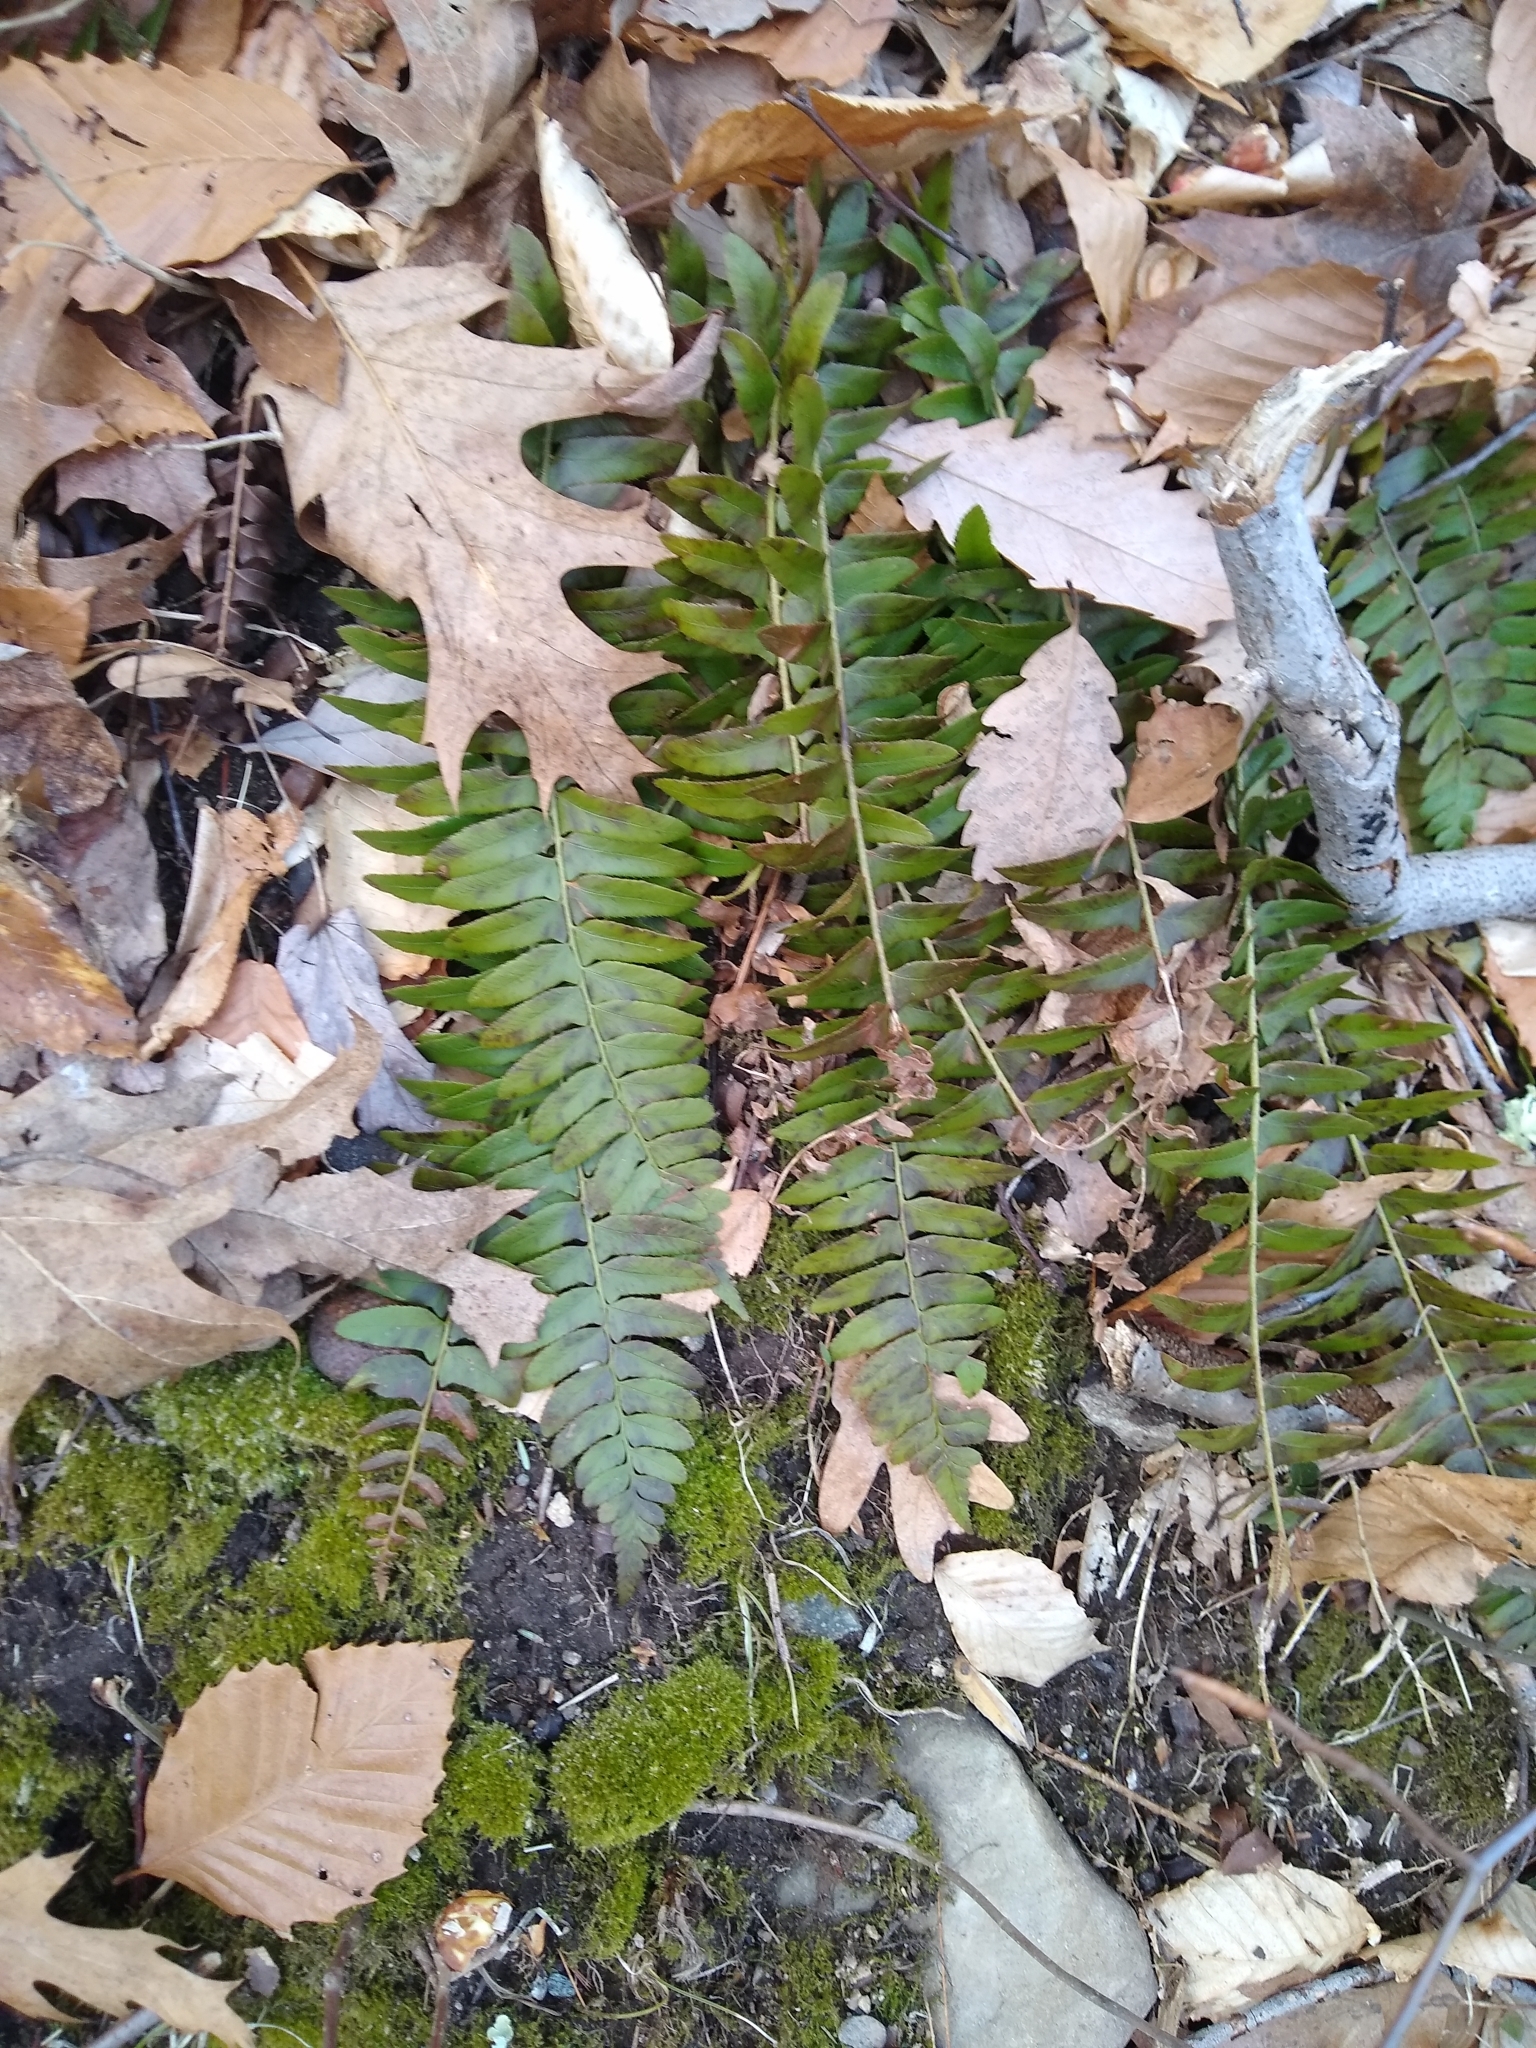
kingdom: Plantae
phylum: Tracheophyta
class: Polypodiopsida
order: Polypodiales
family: Dryopteridaceae
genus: Polystichum
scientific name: Polystichum acrostichoides
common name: Christmas fern
